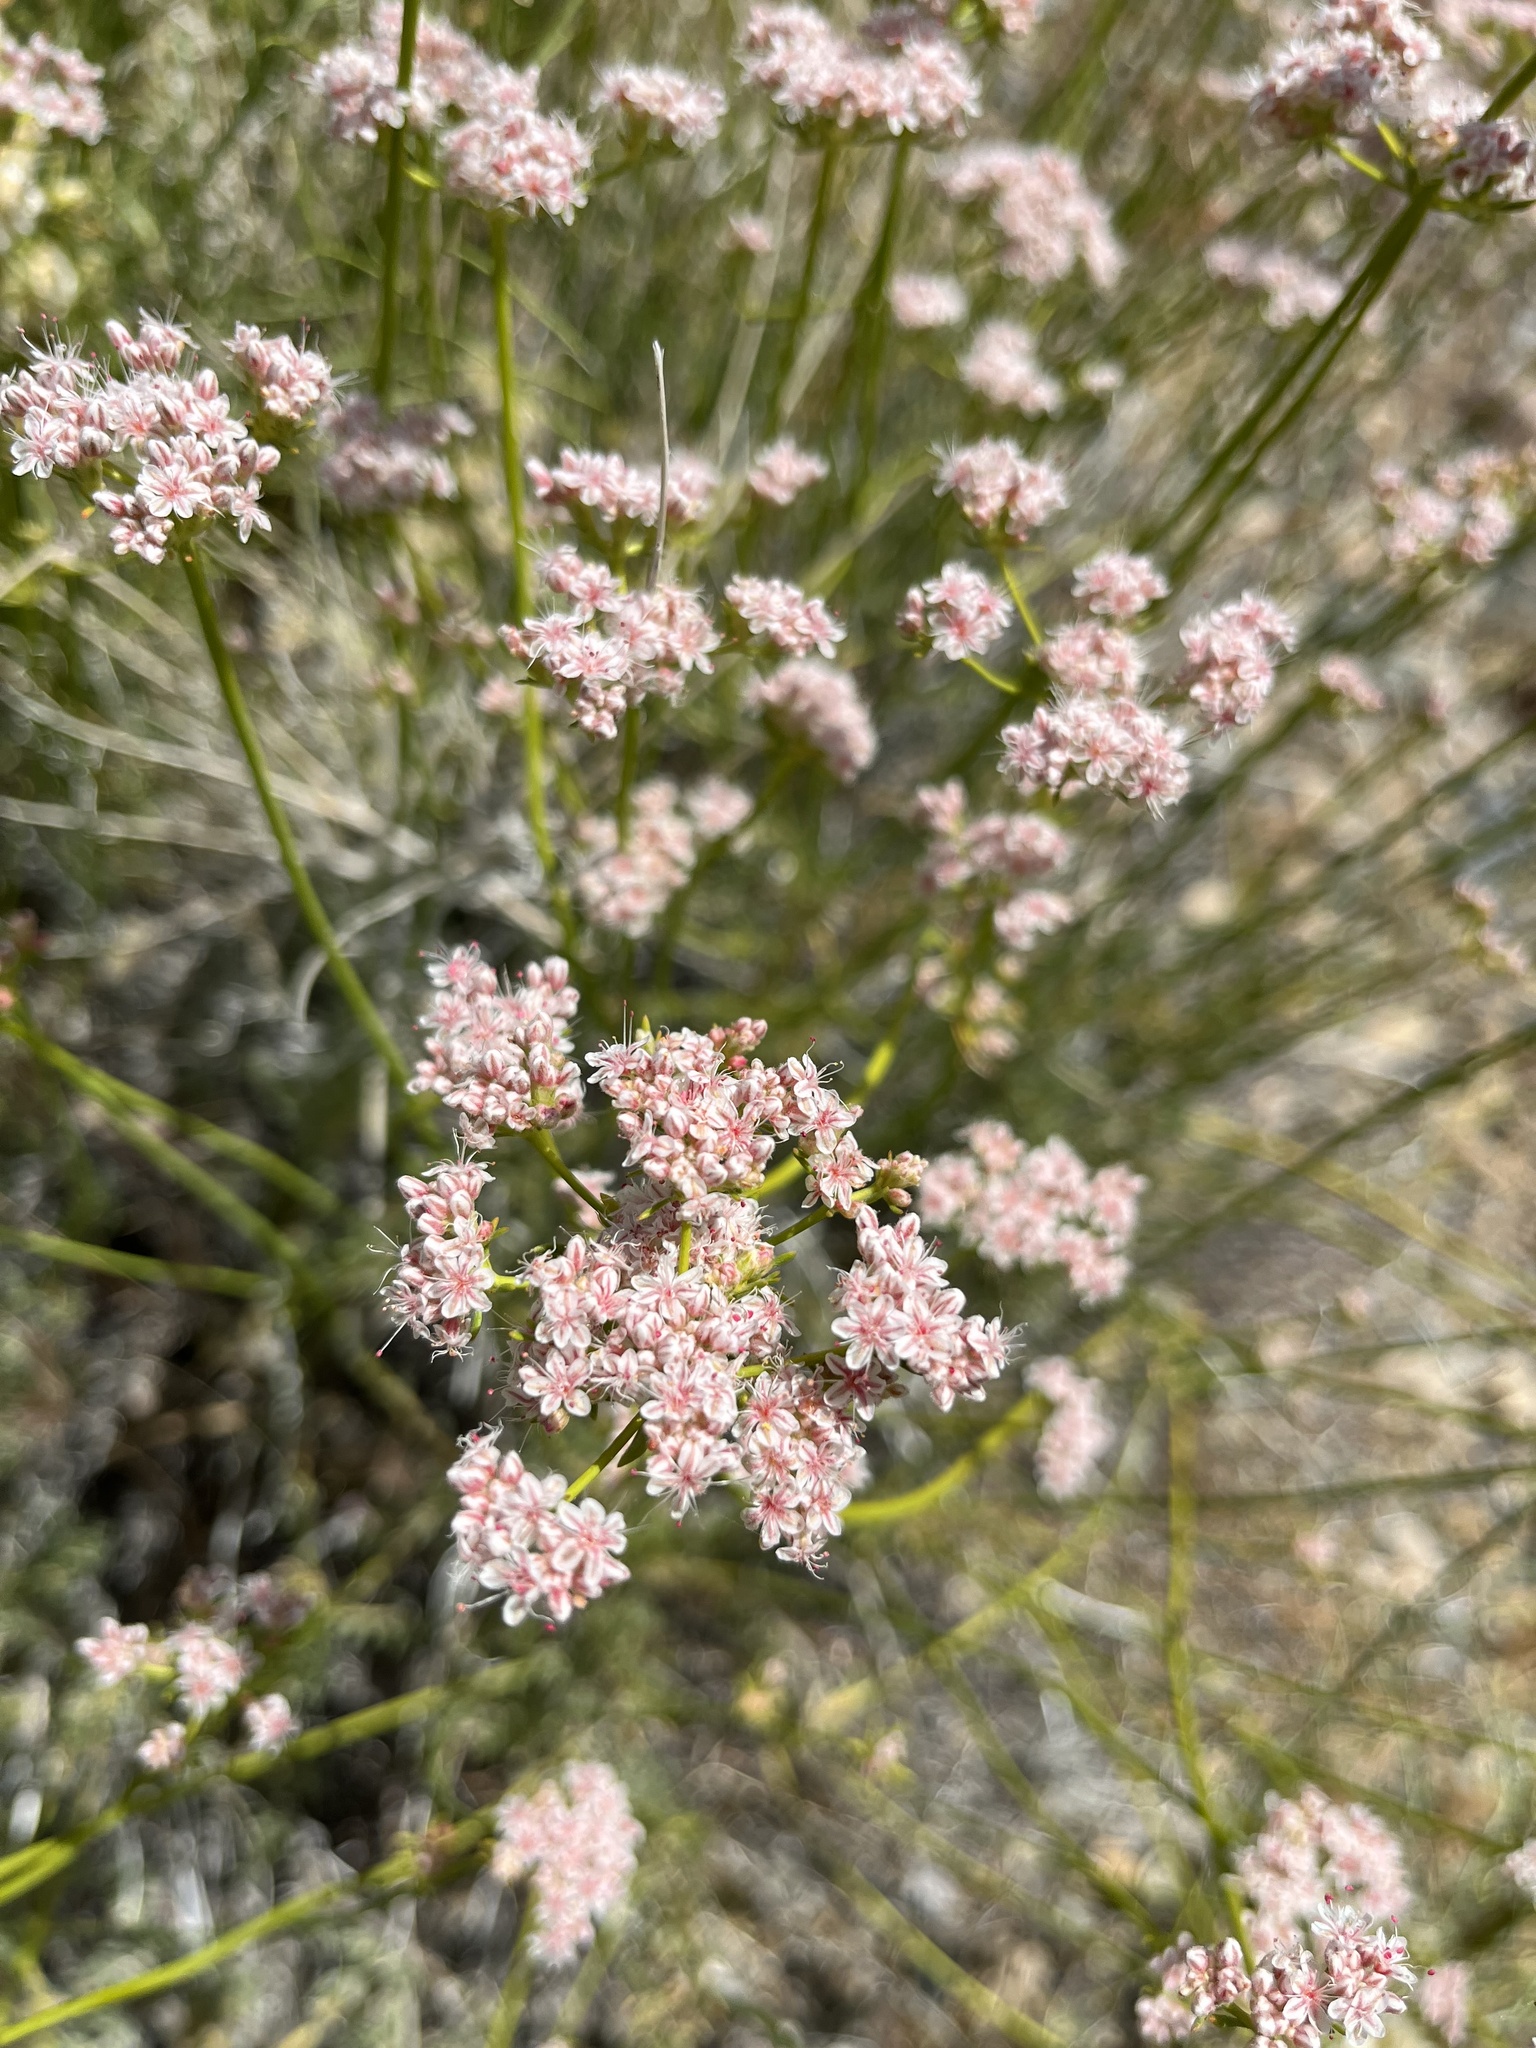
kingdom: Plantae
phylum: Tracheophyta
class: Magnoliopsida
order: Caryophyllales
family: Polygonaceae
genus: Eriogonum
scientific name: Eriogonum fasciculatum
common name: California wild buckwheat
